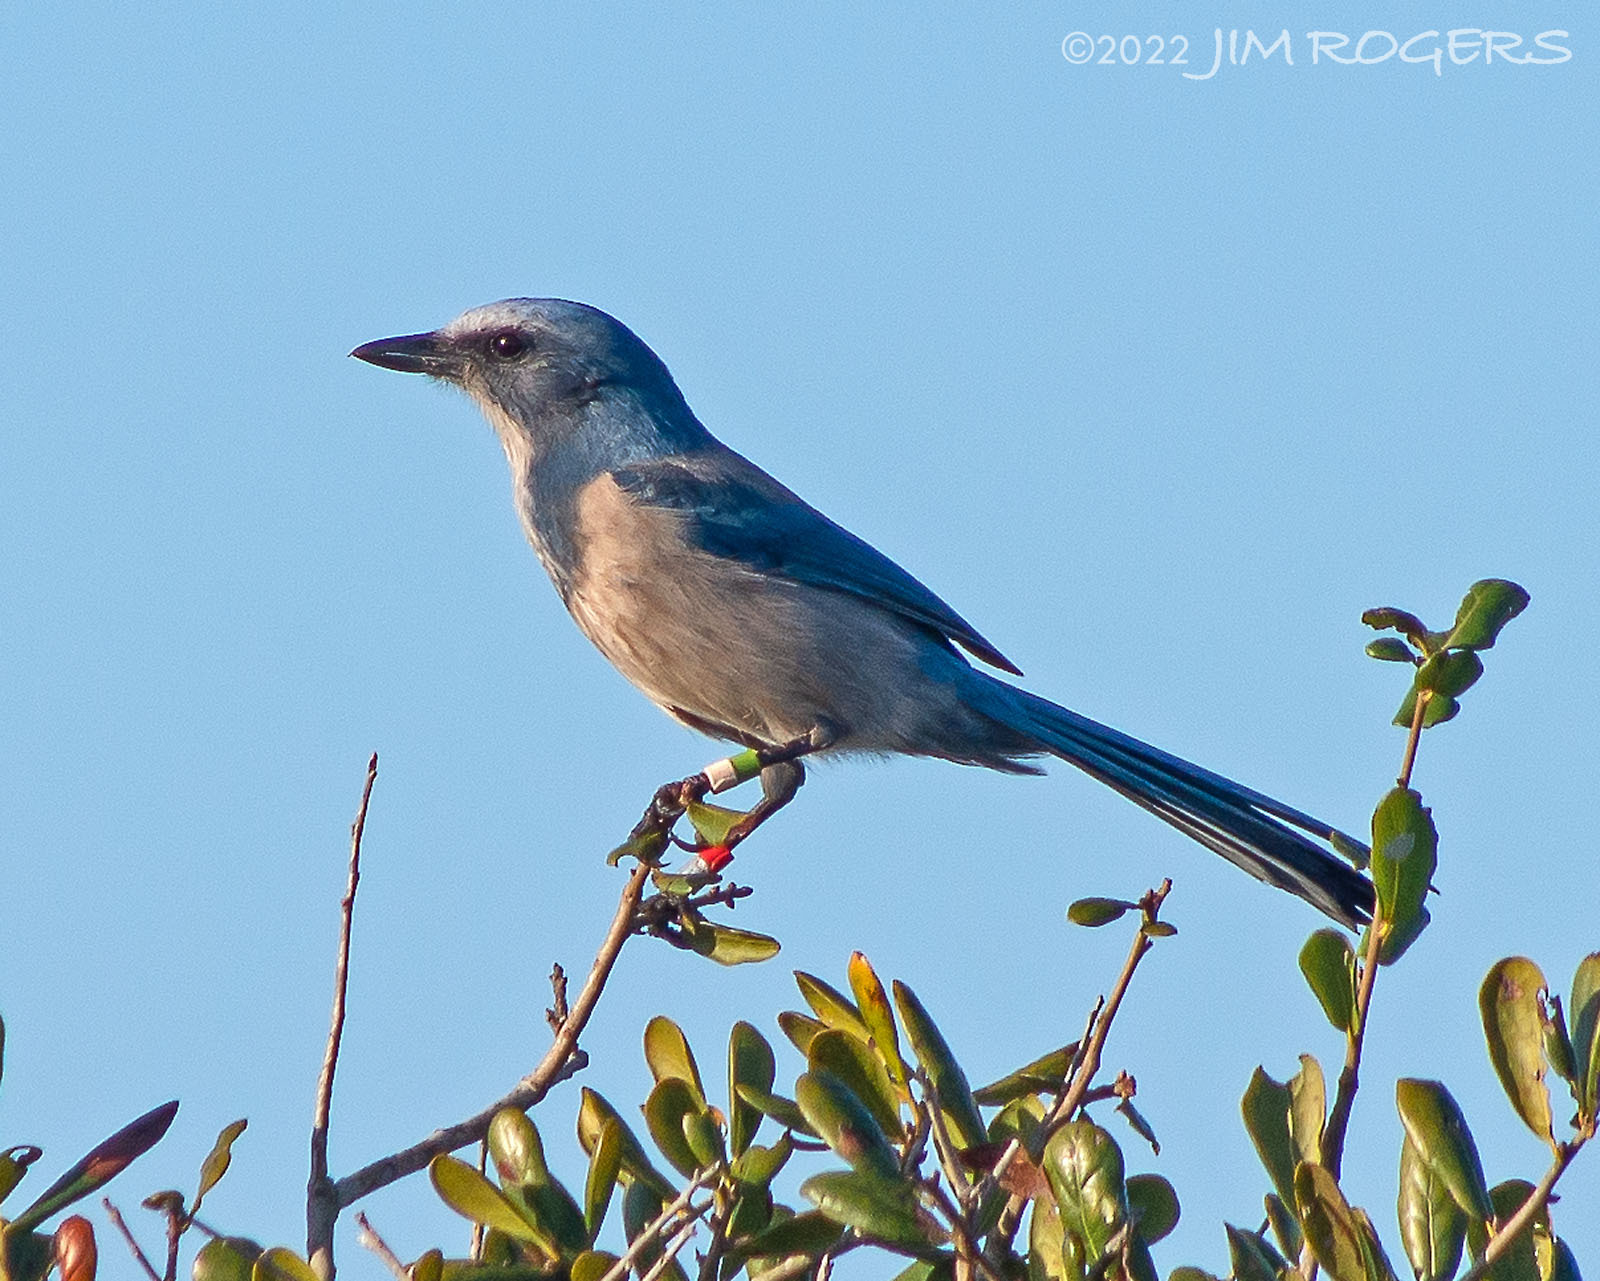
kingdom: Animalia
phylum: Chordata
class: Aves
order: Passeriformes
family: Corvidae
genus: Aphelocoma
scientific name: Aphelocoma coerulescens
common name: Florida scrub jay
